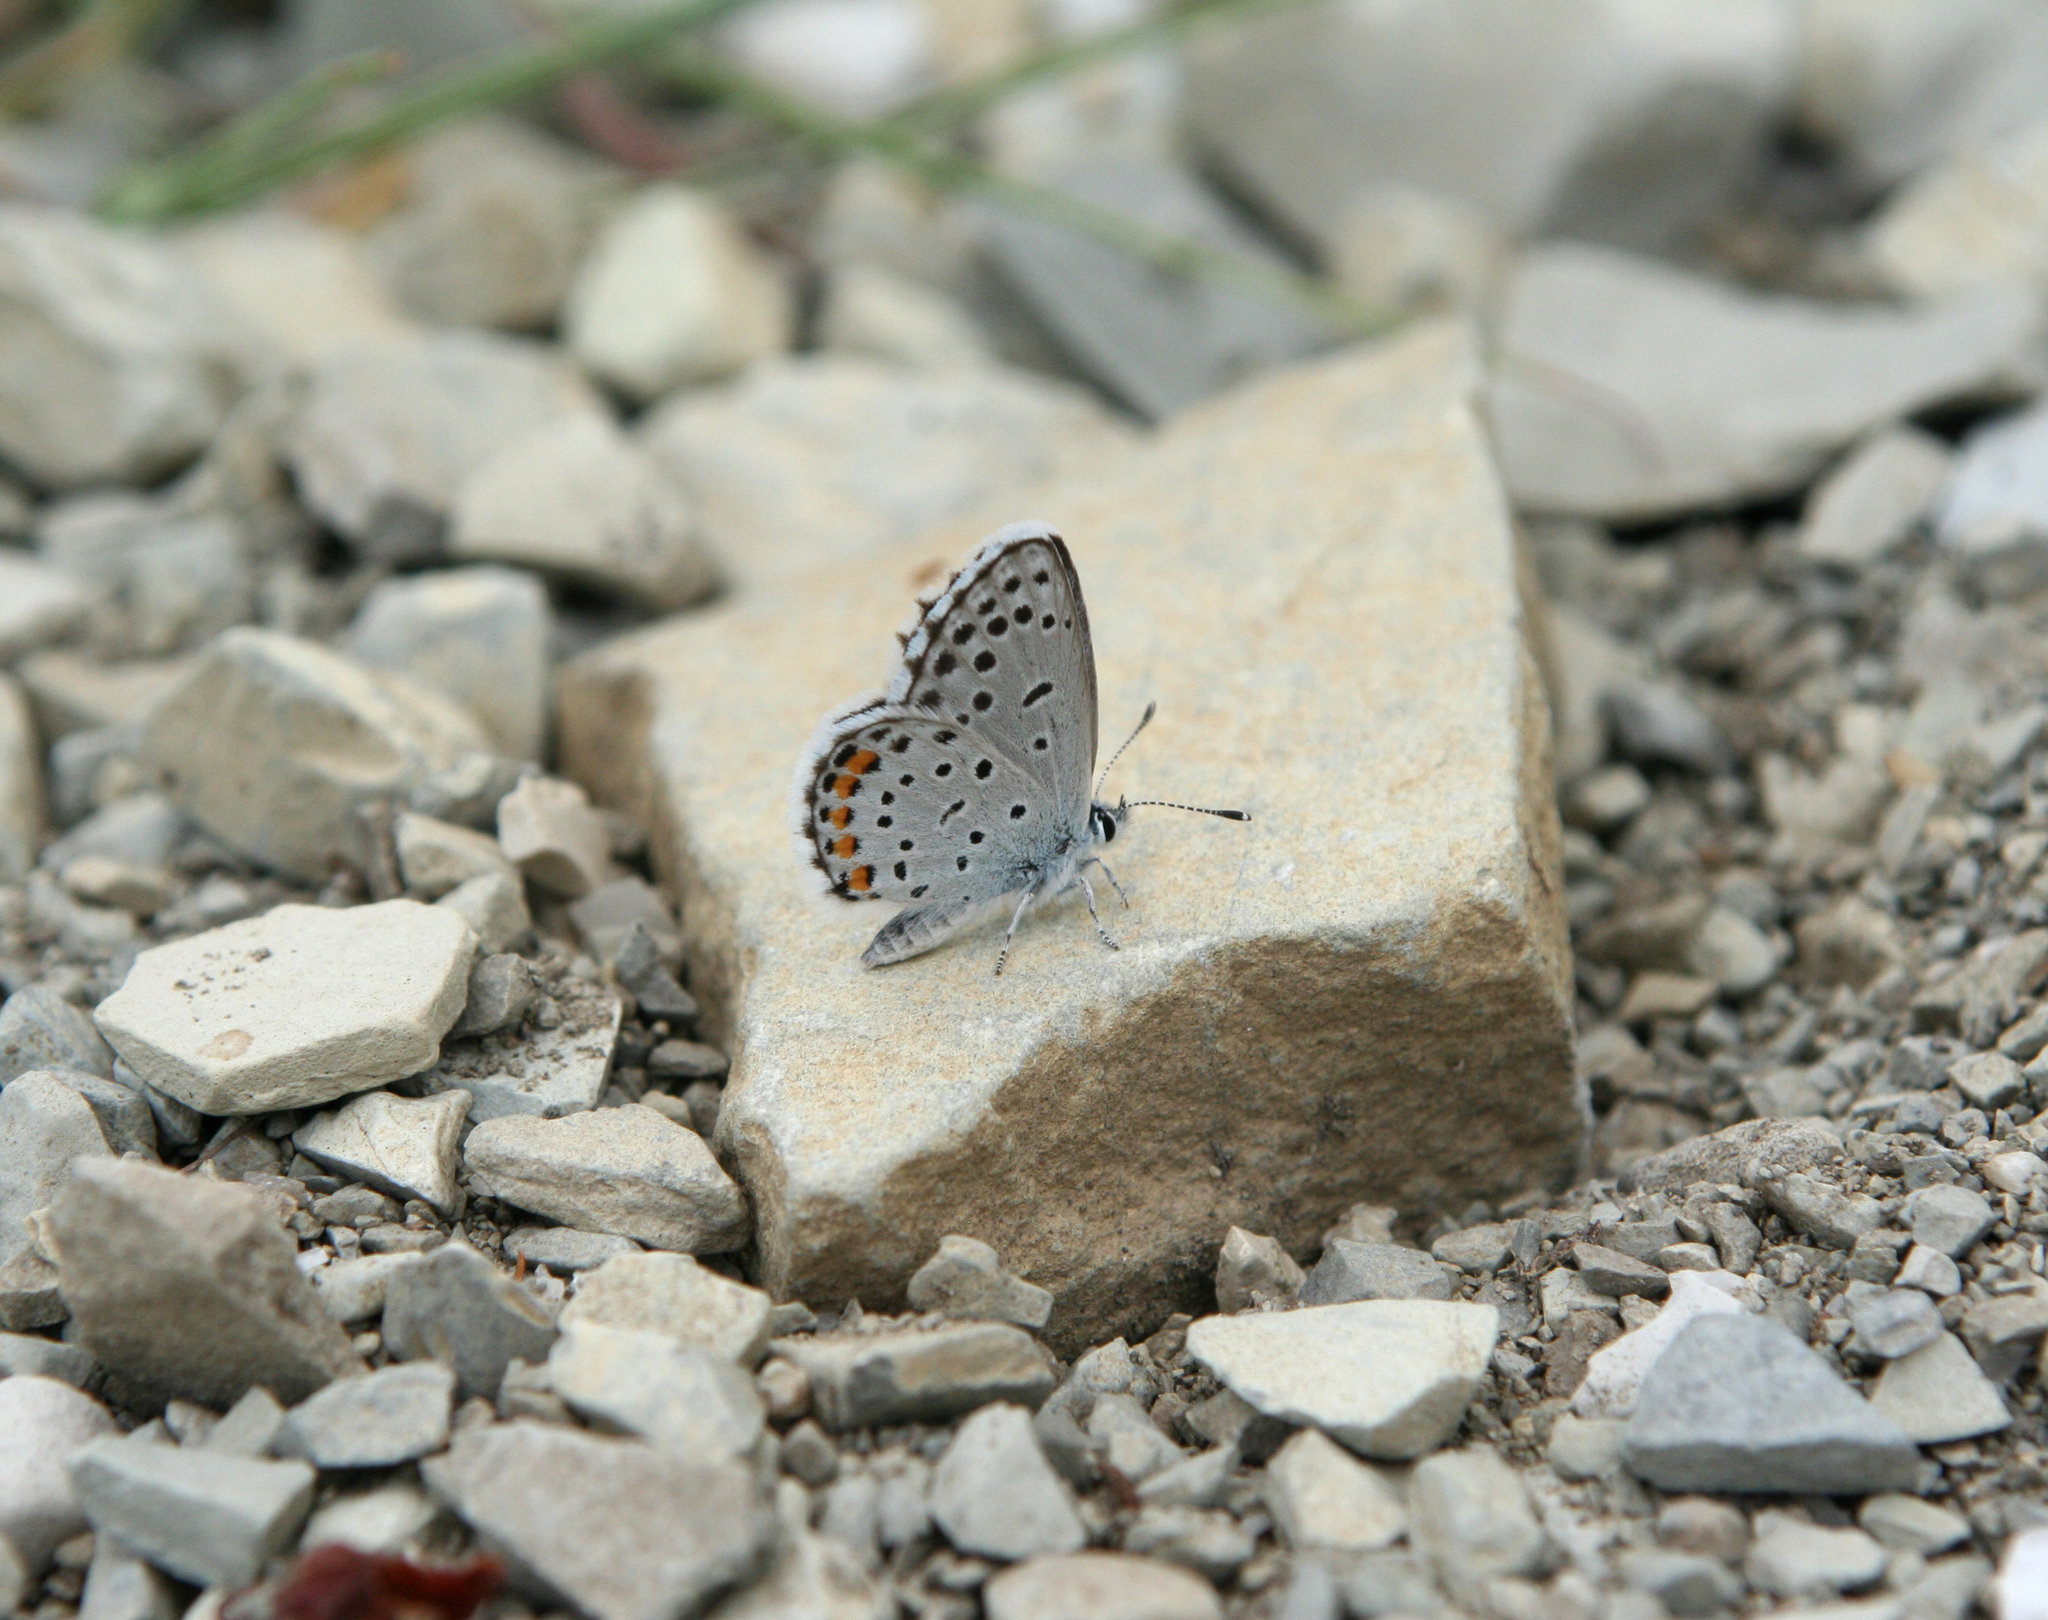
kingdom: Animalia
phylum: Arthropoda
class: Insecta
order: Lepidoptera
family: Lycaenidae
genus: Pseudophilotes
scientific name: Pseudophilotes baton
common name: Baton blue
